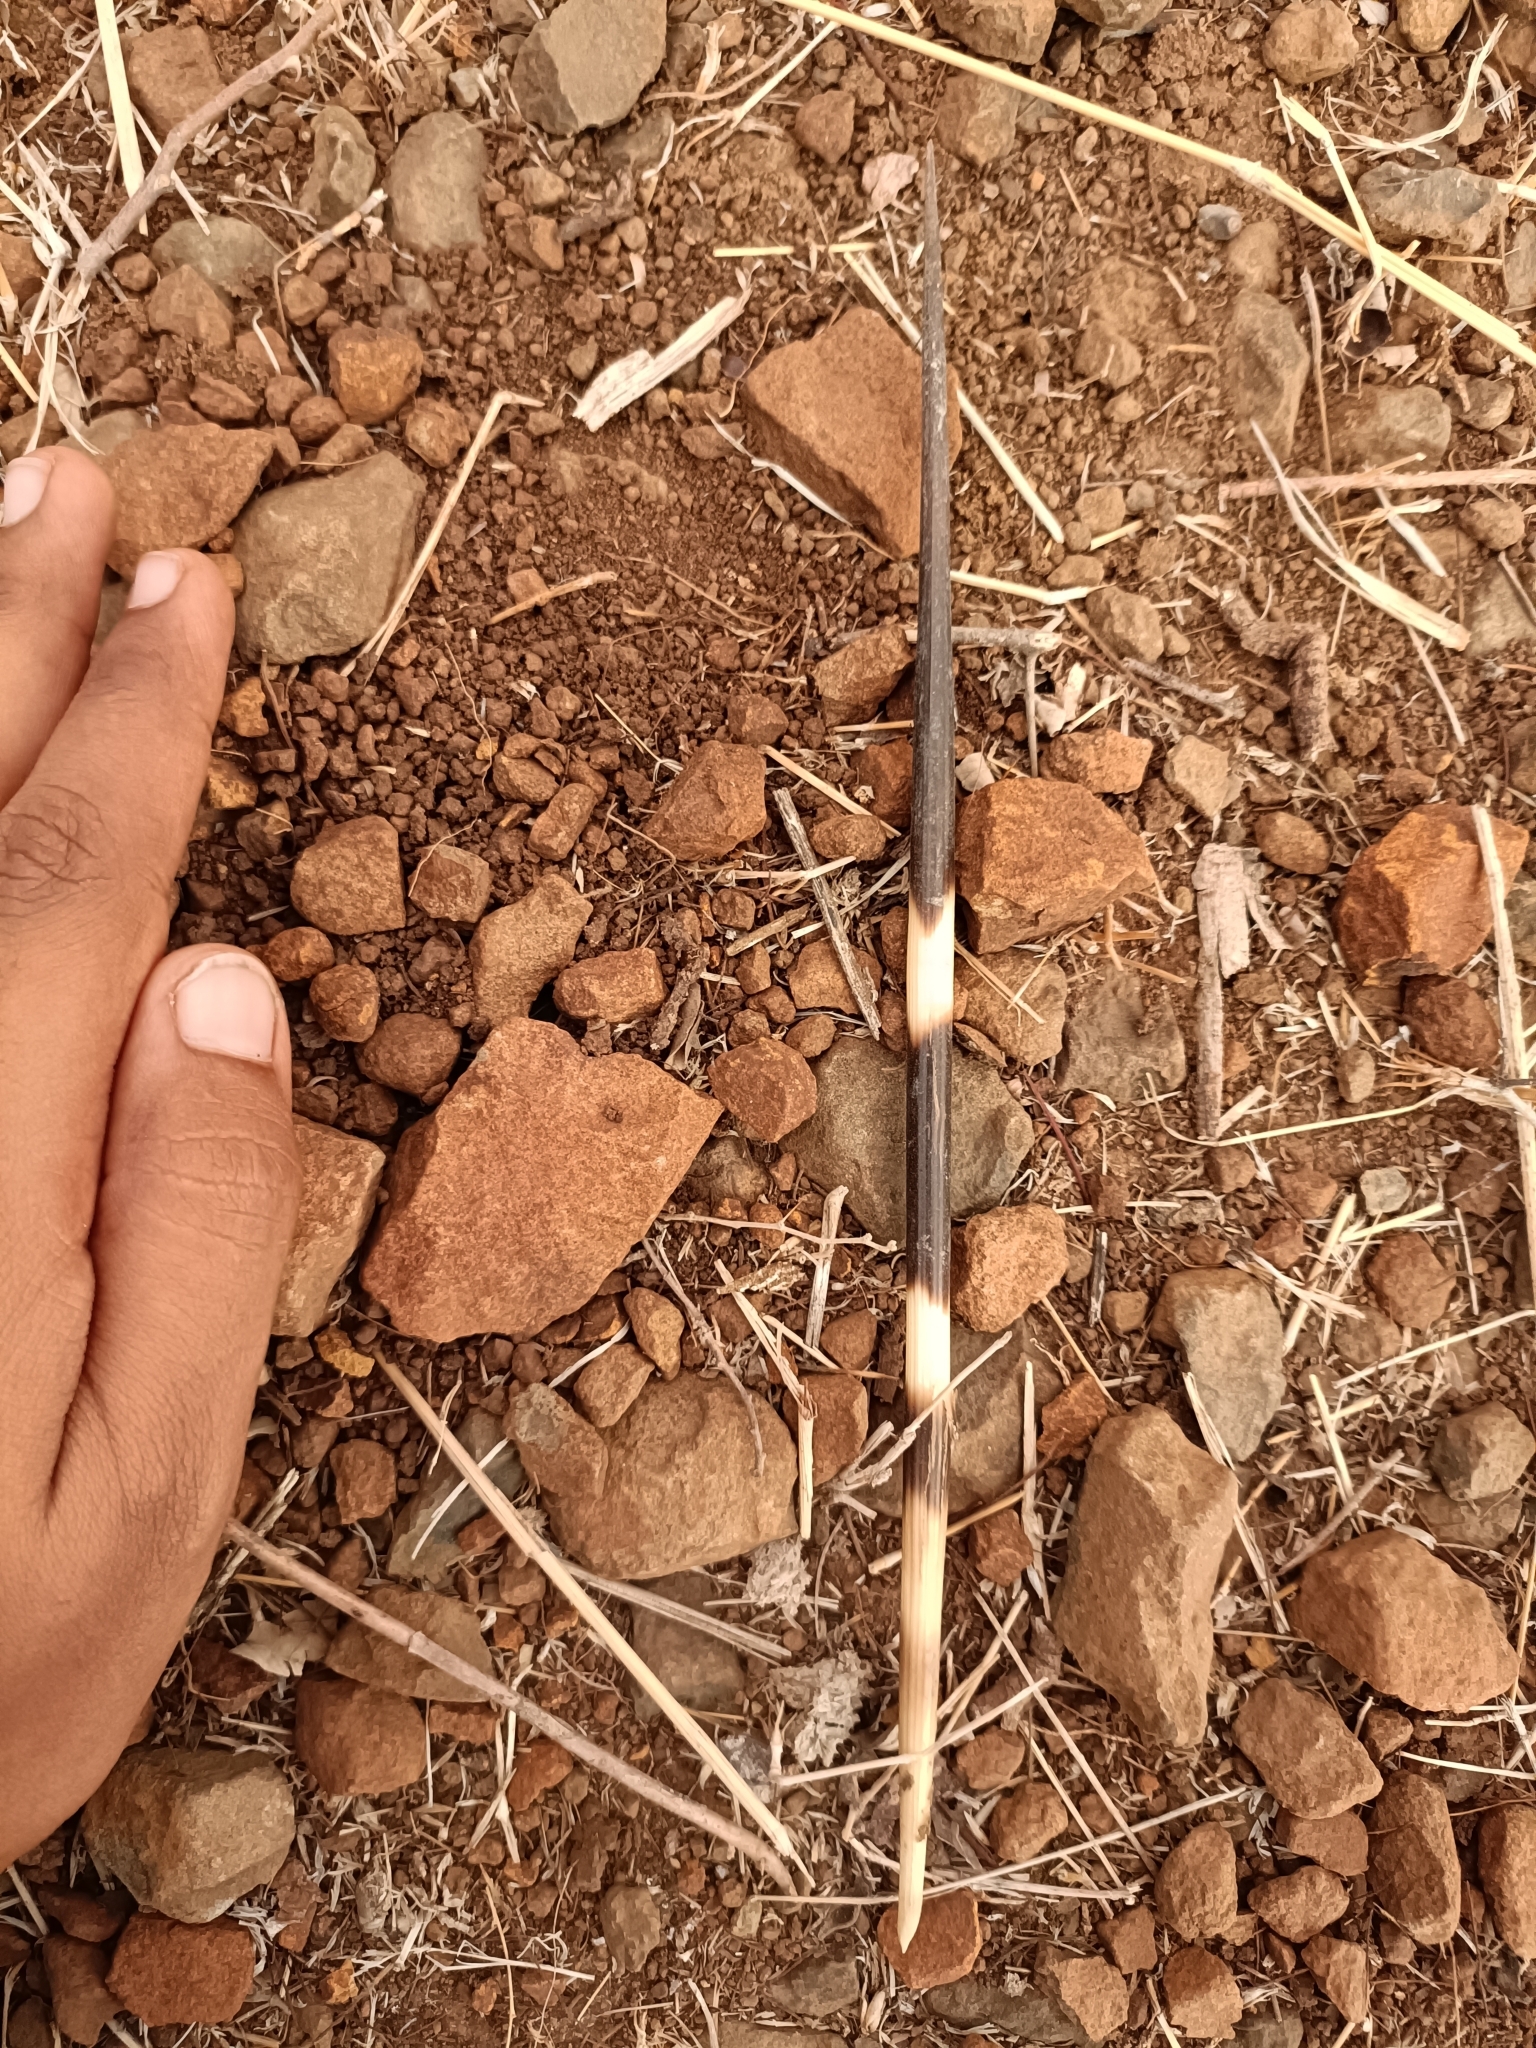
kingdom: Animalia
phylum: Chordata
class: Mammalia
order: Rodentia
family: Hystricidae
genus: Hystrix
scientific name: Hystrix indica
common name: Indian crested porcupine
